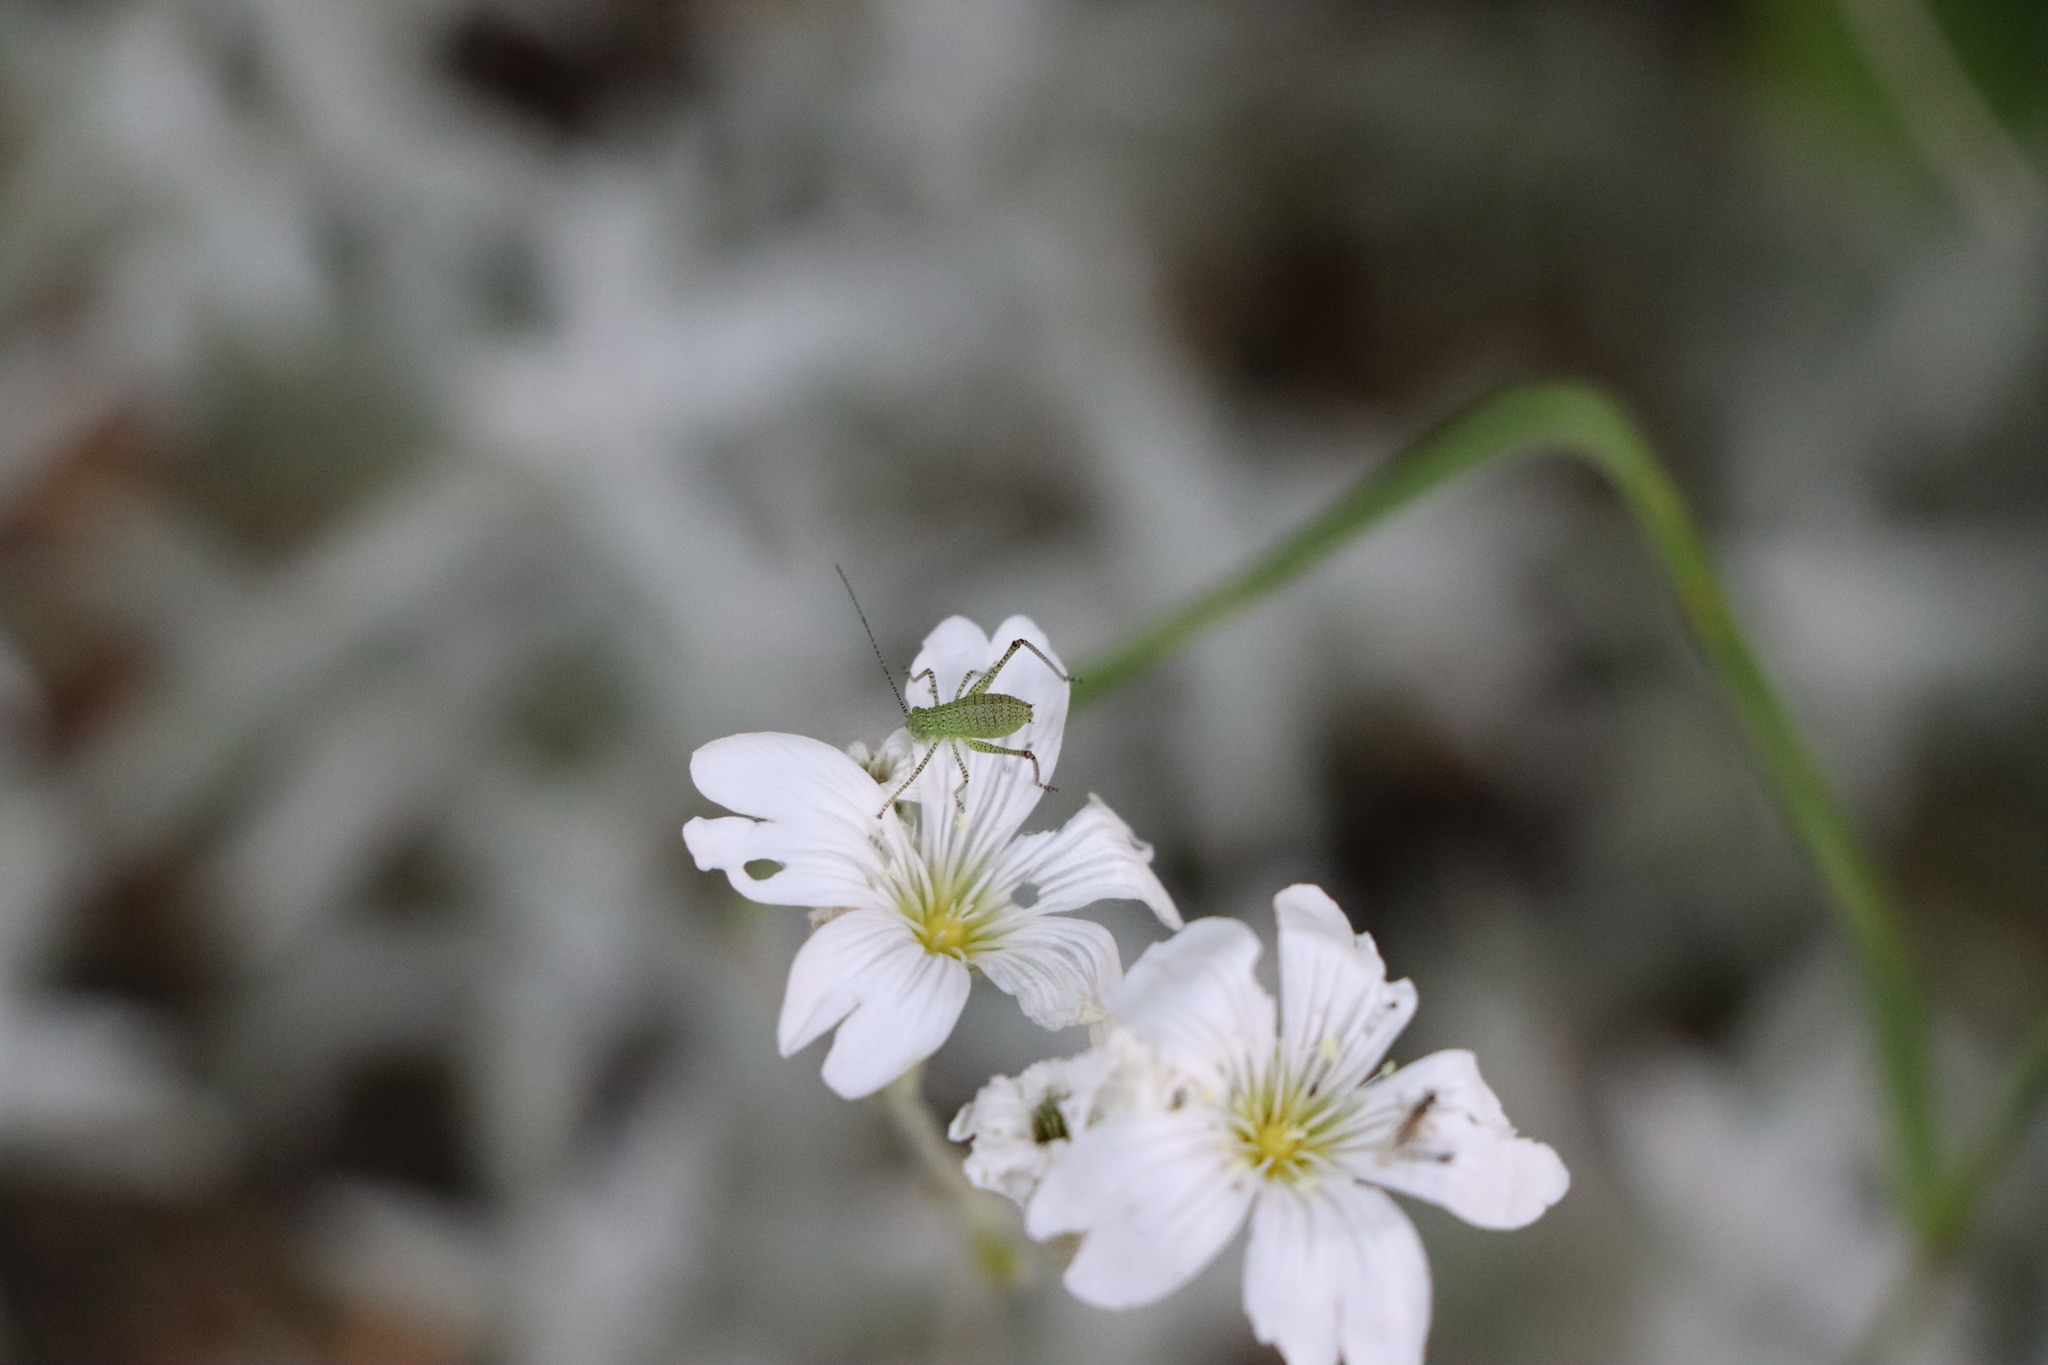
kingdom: Animalia
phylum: Arthropoda
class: Insecta
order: Orthoptera
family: Tettigoniidae
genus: Leptophyes
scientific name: Leptophyes punctatissima
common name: Speckled bush-cricket
